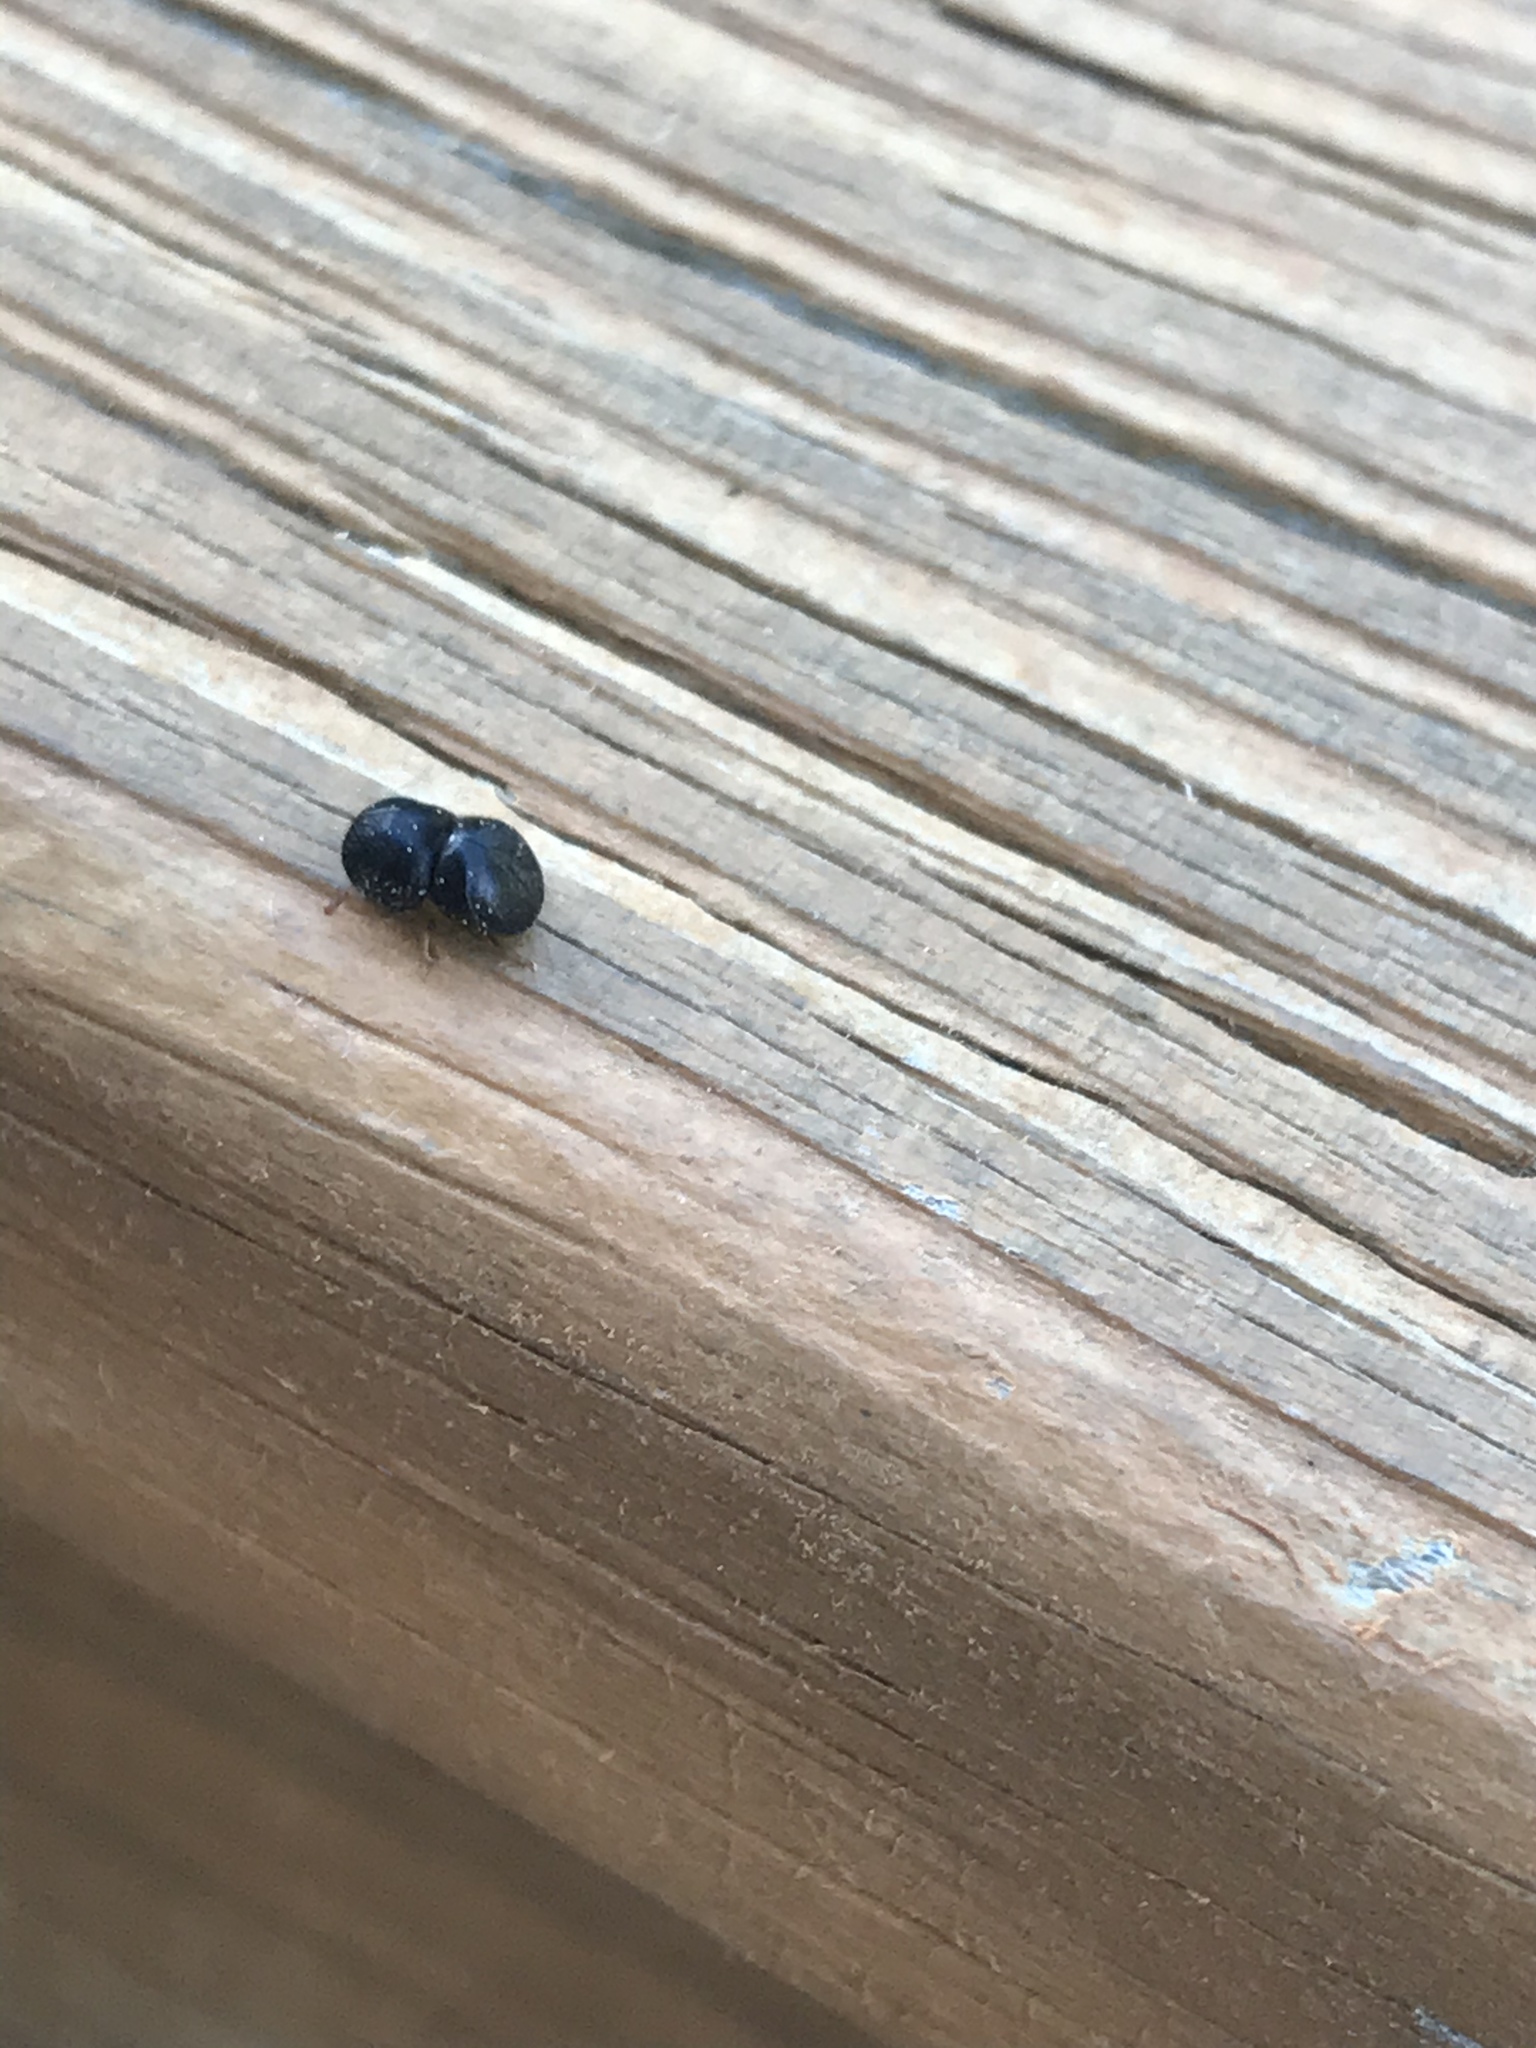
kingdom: Animalia
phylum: Arthropoda
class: Insecta
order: Coleoptera
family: Curculionidae
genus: Cnestus
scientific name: Cnestus mutilatus
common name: Camphor shot borer
